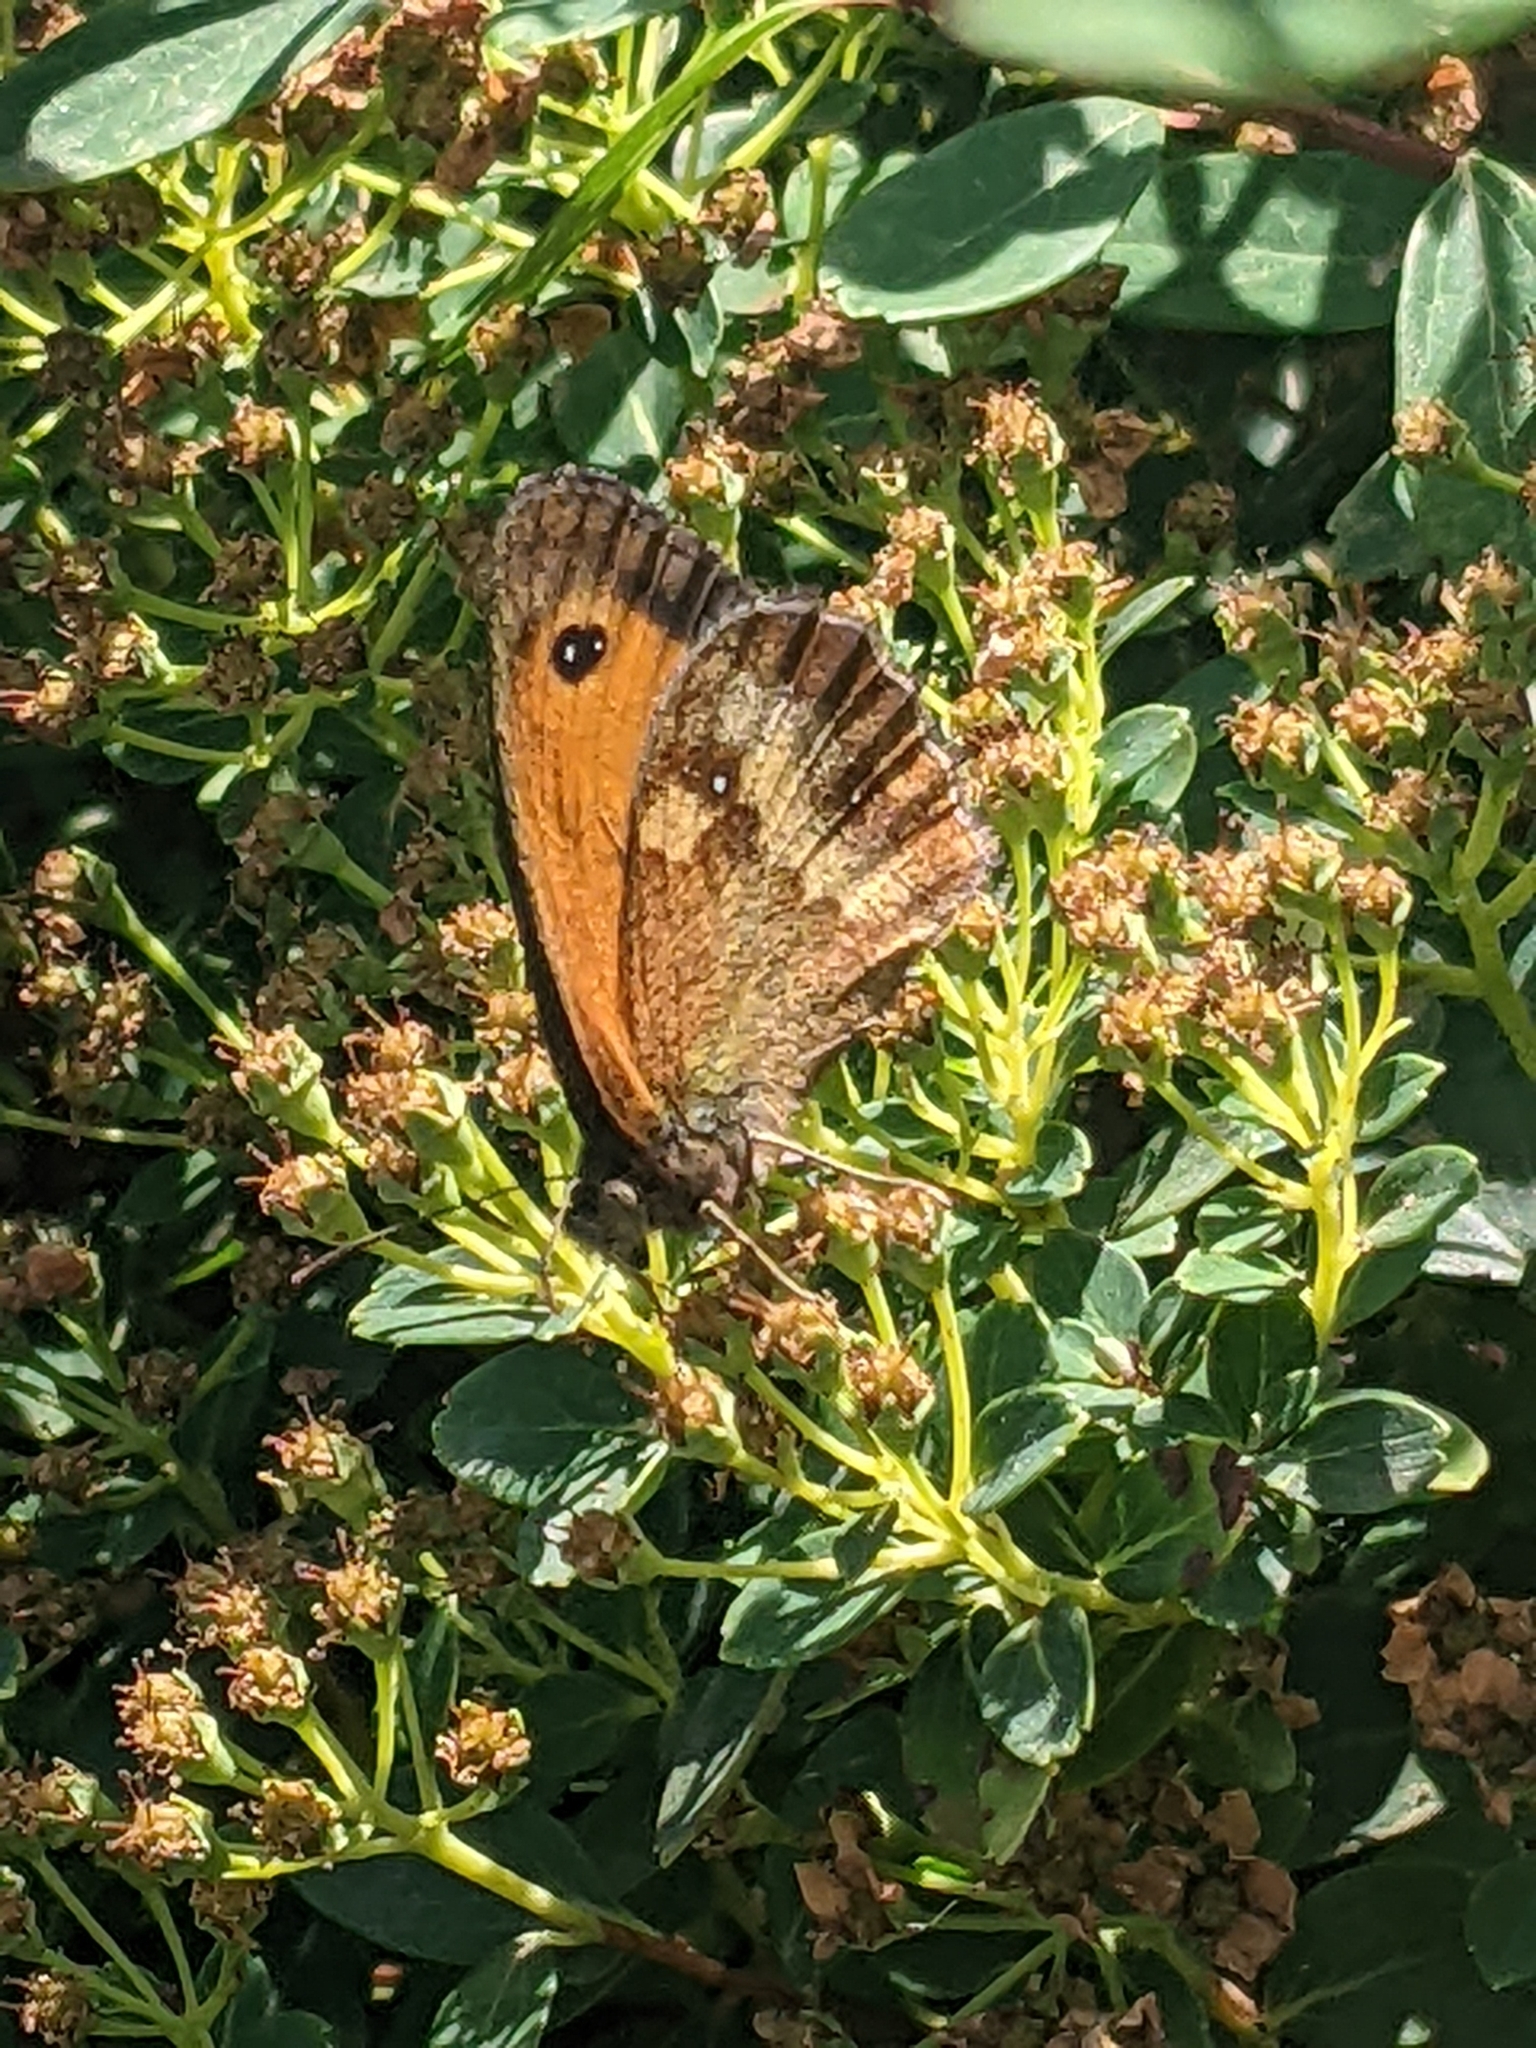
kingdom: Animalia
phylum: Arthropoda
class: Insecta
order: Lepidoptera
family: Nymphalidae
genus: Maniola
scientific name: Maniola jurtina
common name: Meadow brown
